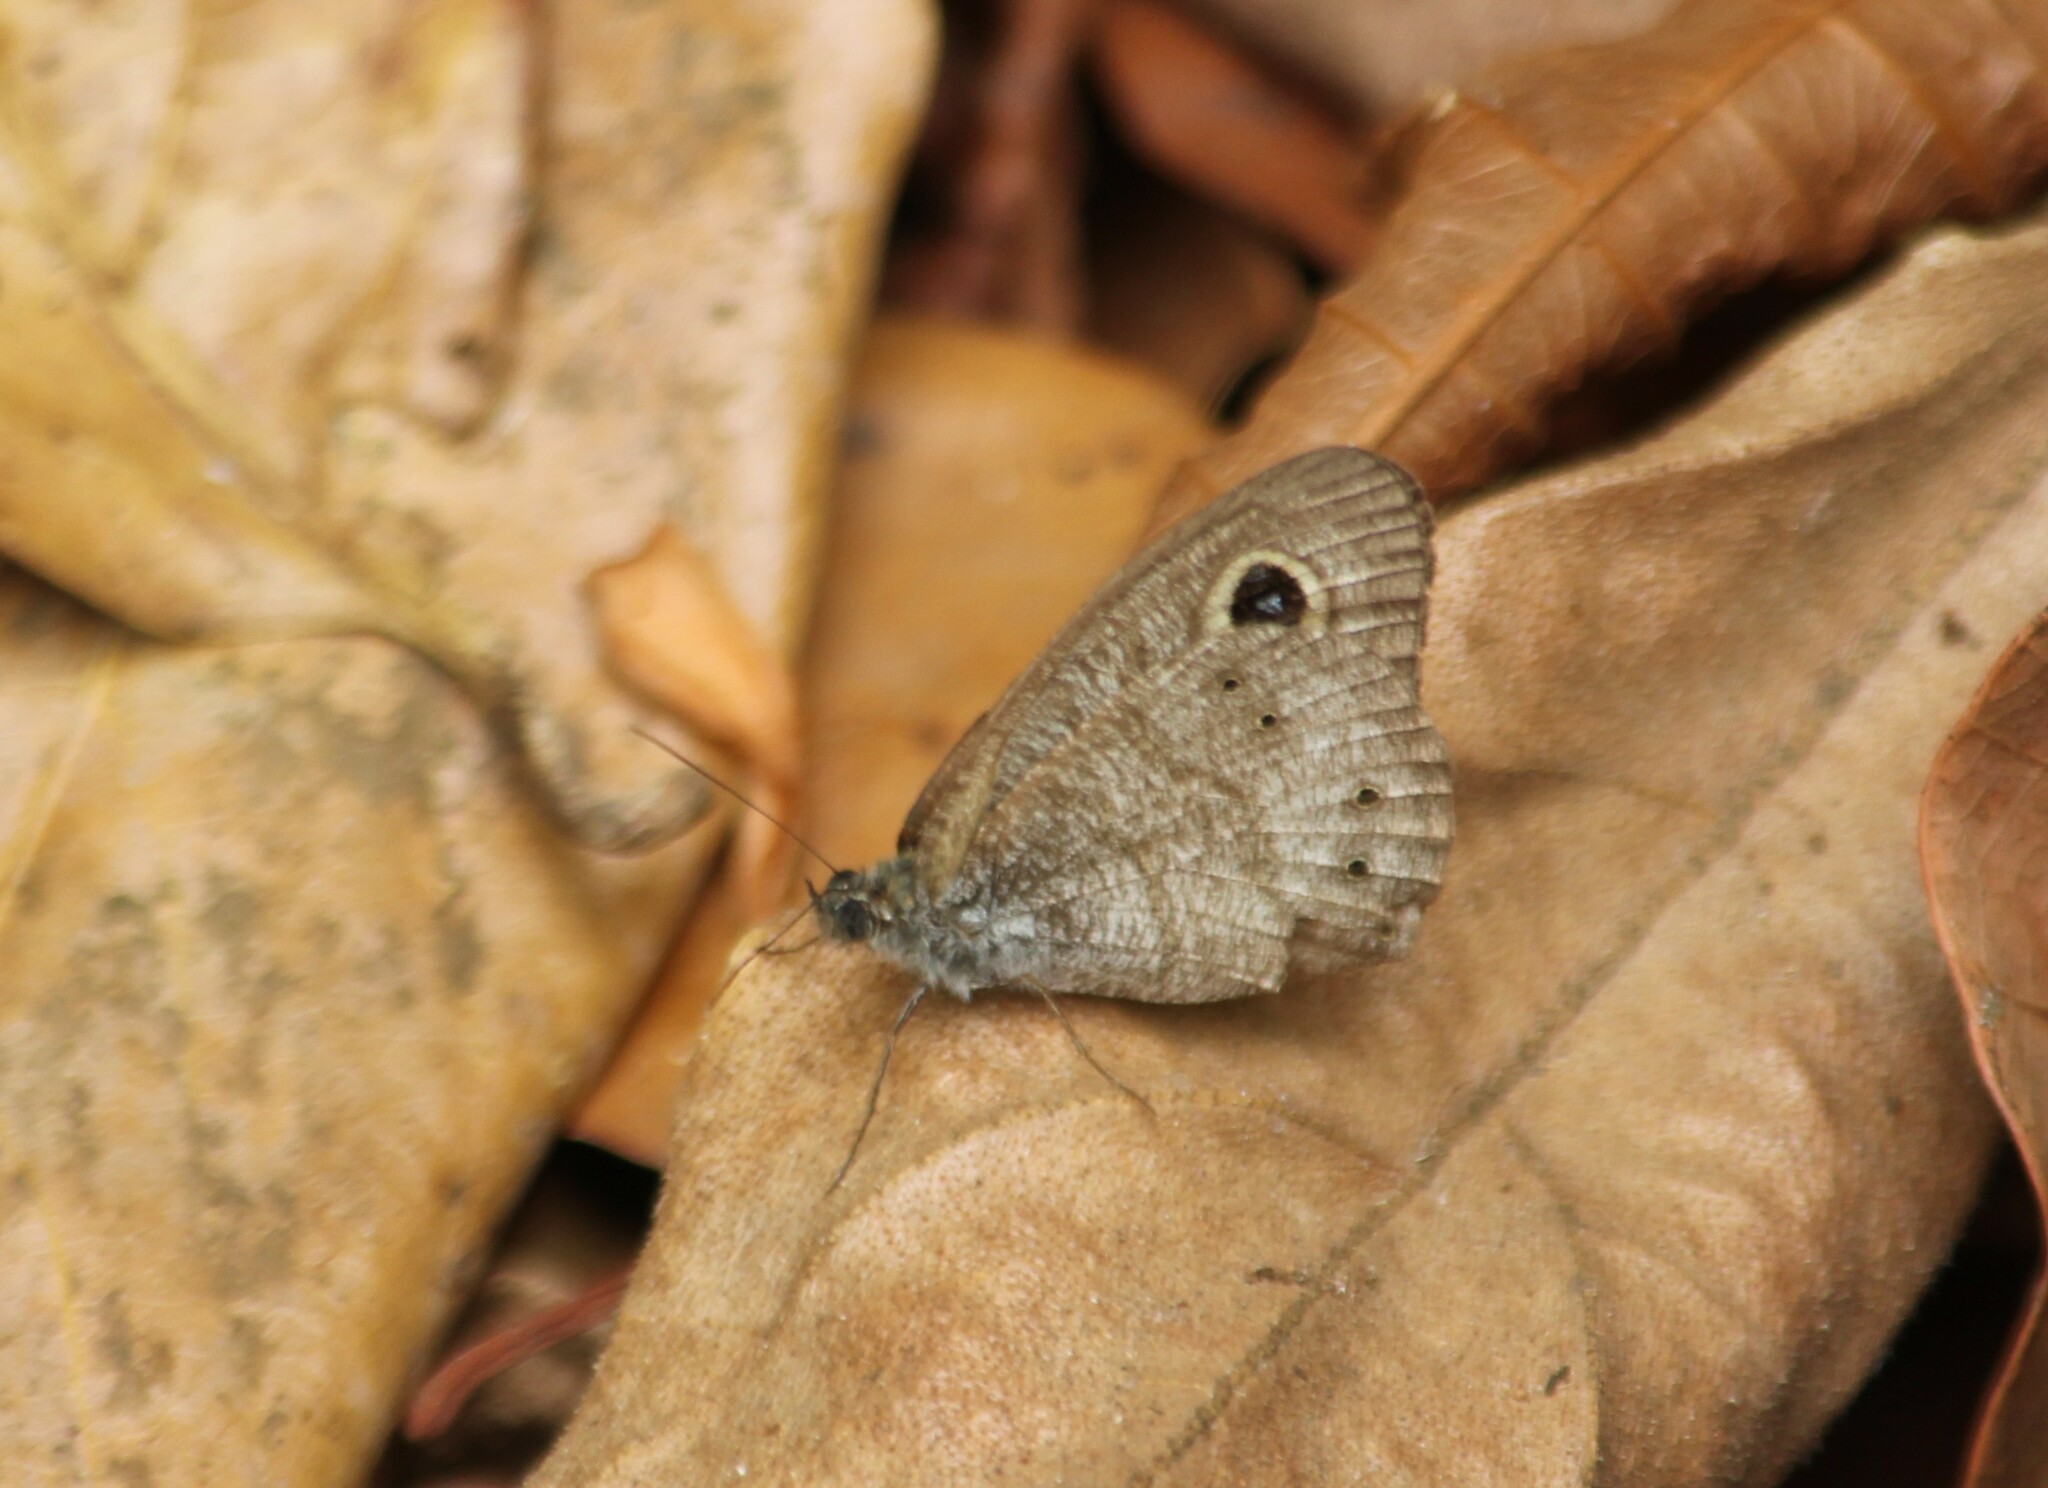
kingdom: Animalia
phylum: Arthropoda
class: Insecta
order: Lepidoptera
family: Nymphalidae
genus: Ypthima
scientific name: Ypthima baldus
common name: Common five-ring
